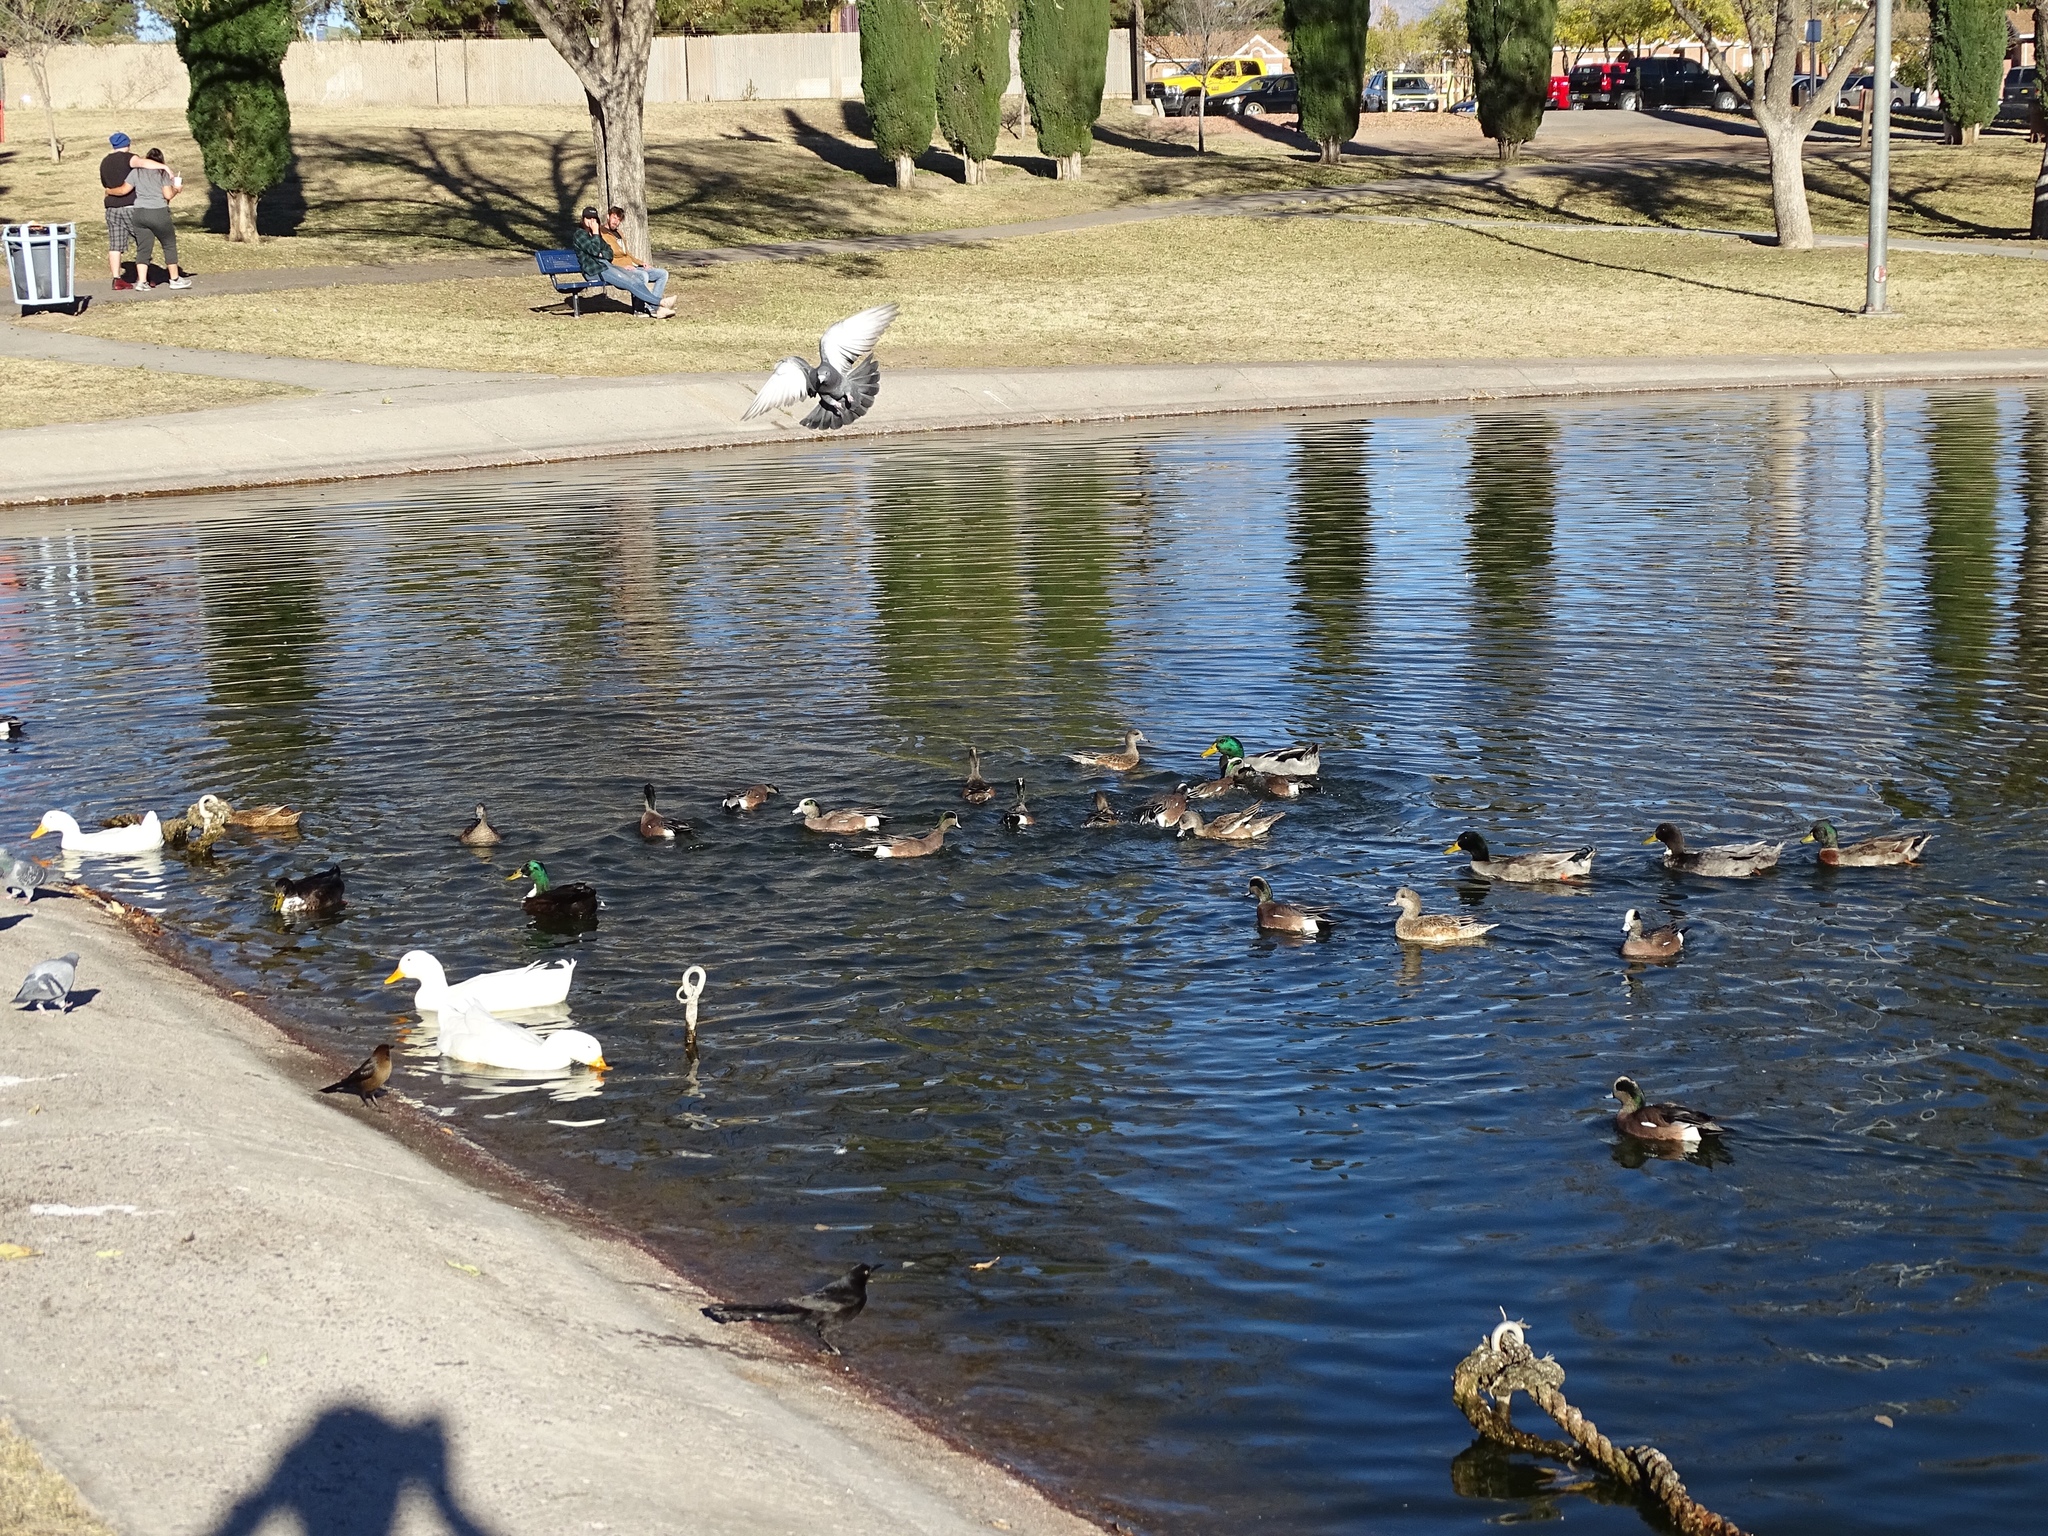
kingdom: Animalia
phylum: Chordata
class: Aves
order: Anseriformes
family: Anatidae
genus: Mareca
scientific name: Mareca americana
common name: American wigeon
